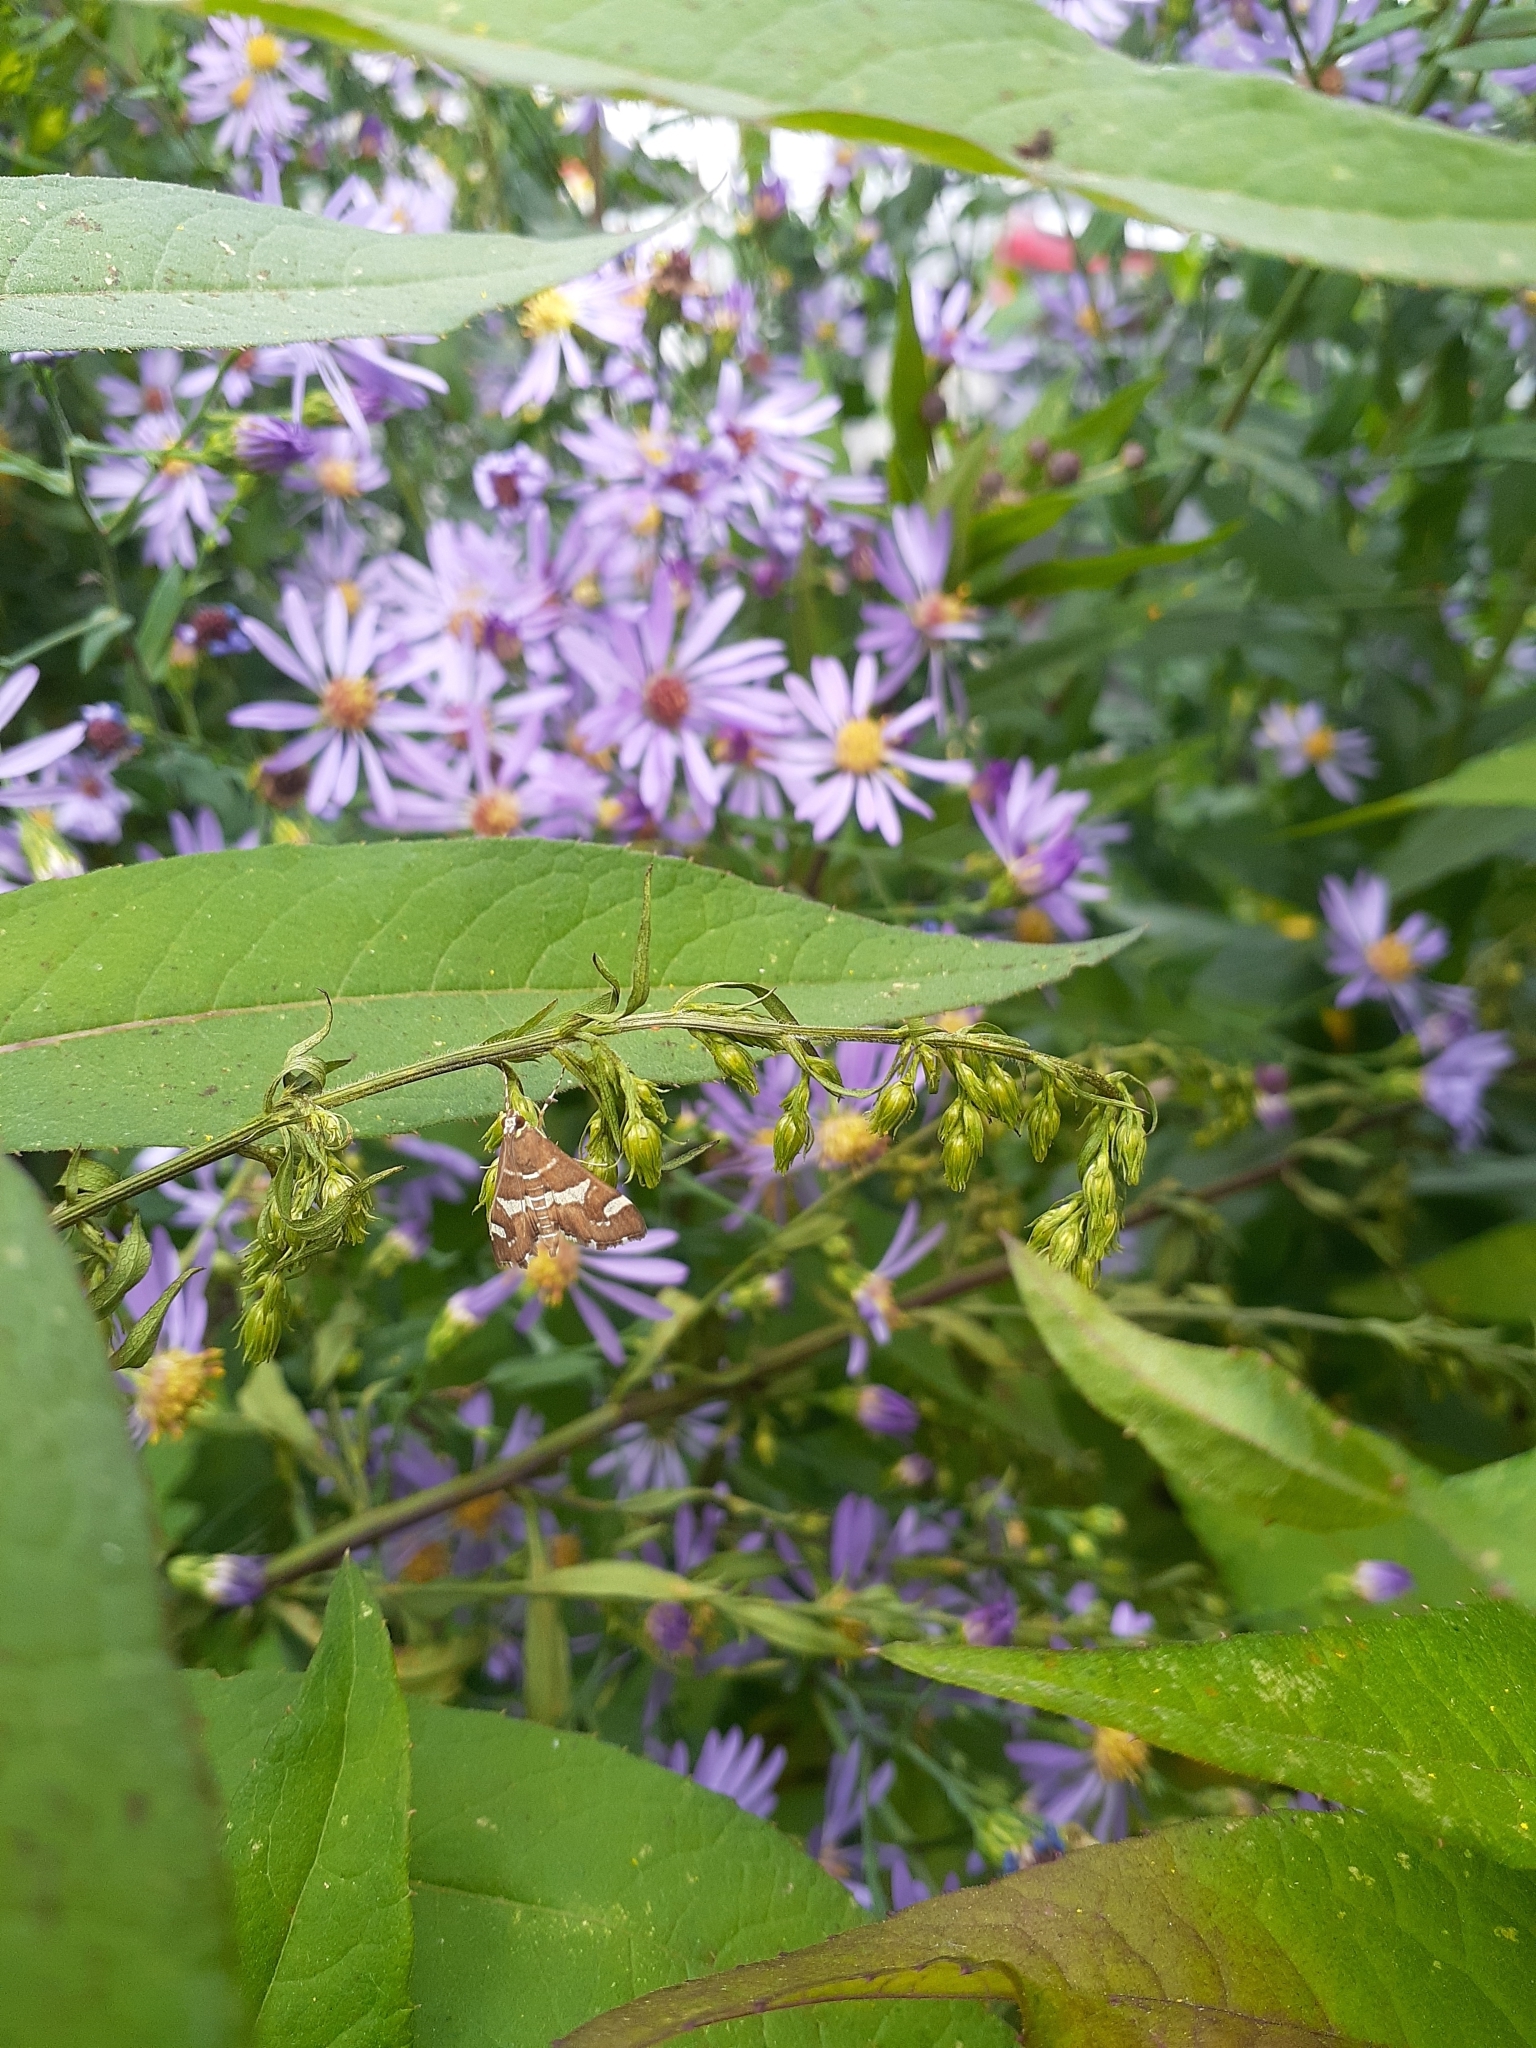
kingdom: Animalia
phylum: Arthropoda
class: Insecta
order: Lepidoptera
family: Crambidae
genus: Spoladea
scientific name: Spoladea recurvalis
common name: Beet webworm moth
